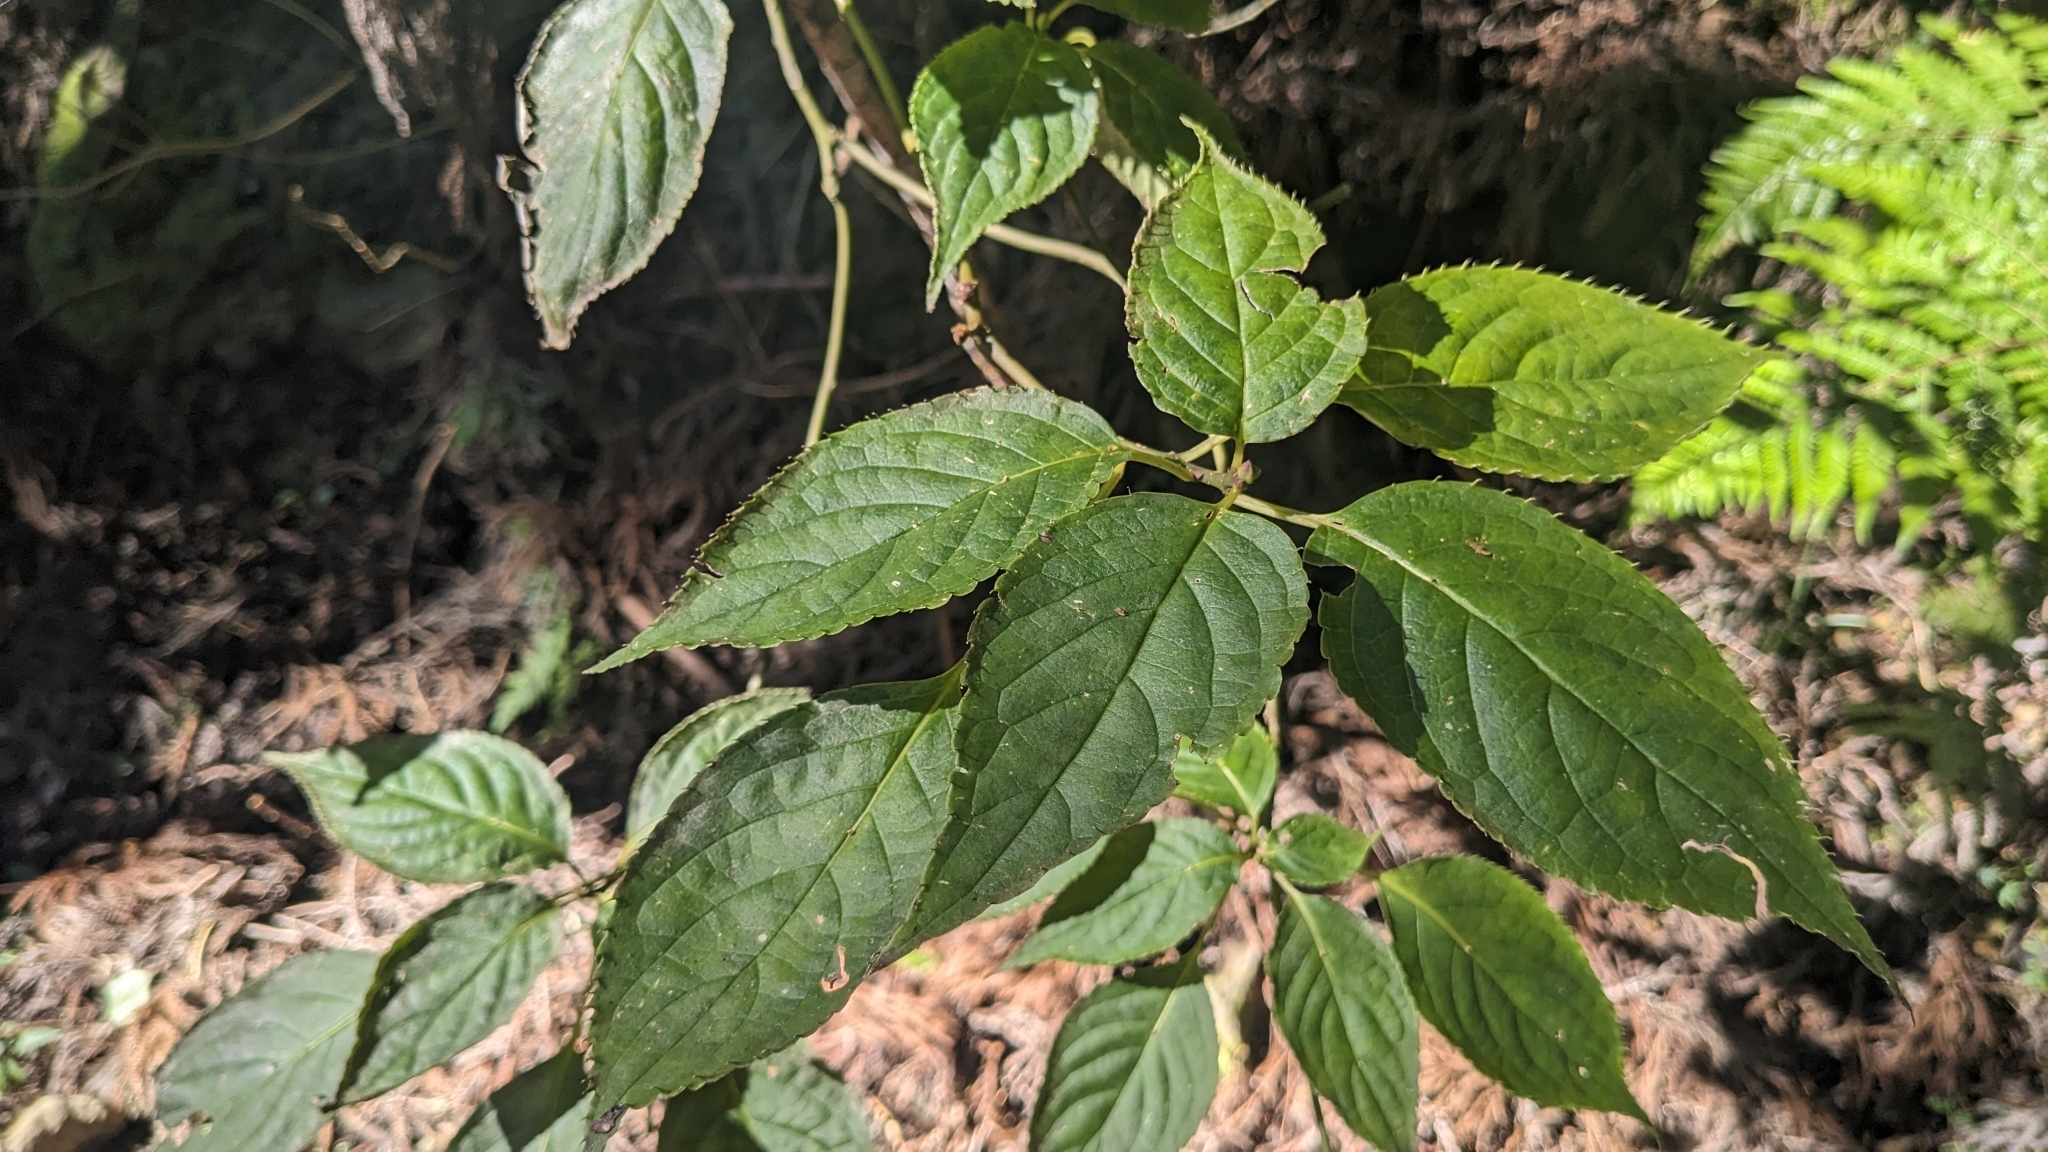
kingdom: Plantae
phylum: Tracheophyta
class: Magnoliopsida
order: Aquifoliales
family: Helwingiaceae
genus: Helwingia
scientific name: Helwingia japonica
